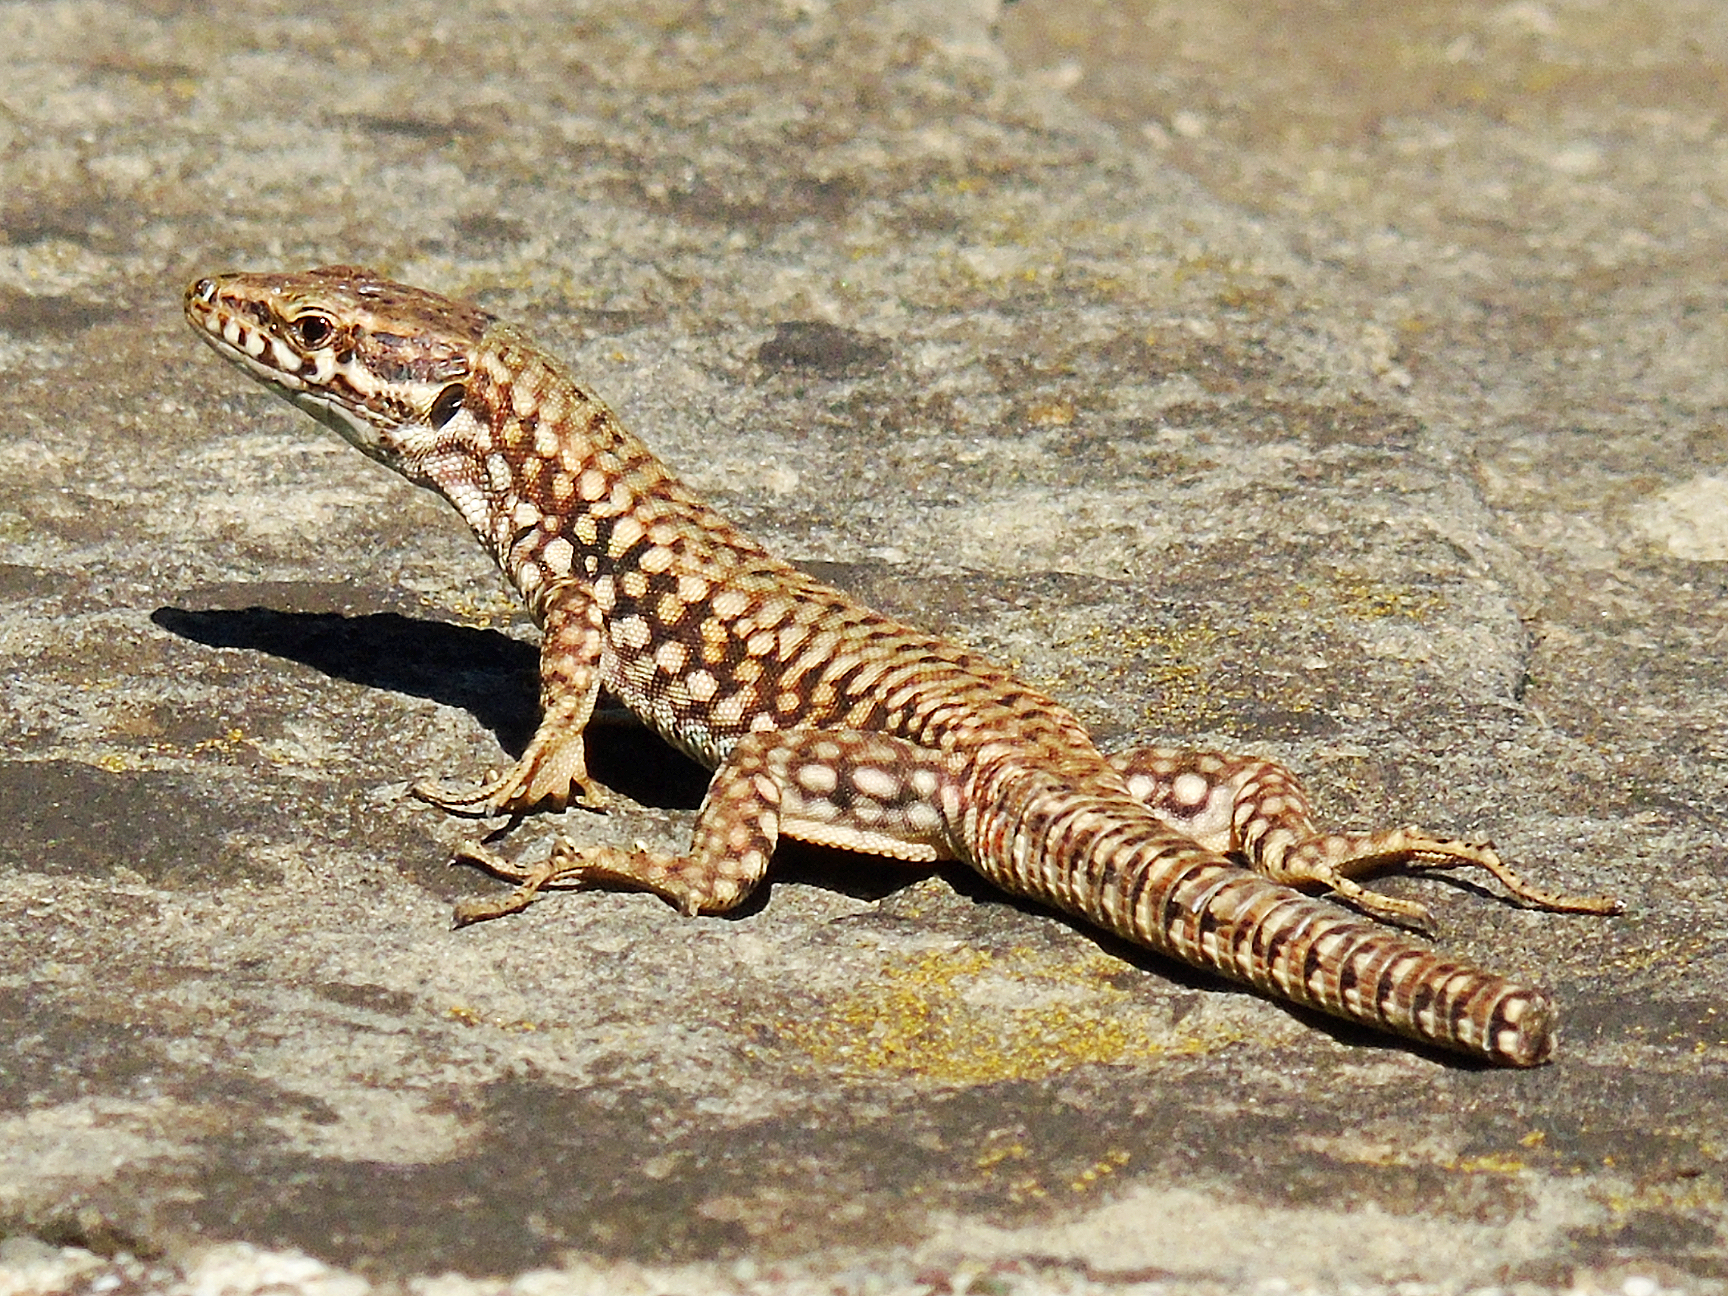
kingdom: Animalia
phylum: Chordata
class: Squamata
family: Lacertidae
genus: Podarcis
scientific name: Podarcis muralis
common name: Common wall lizard
